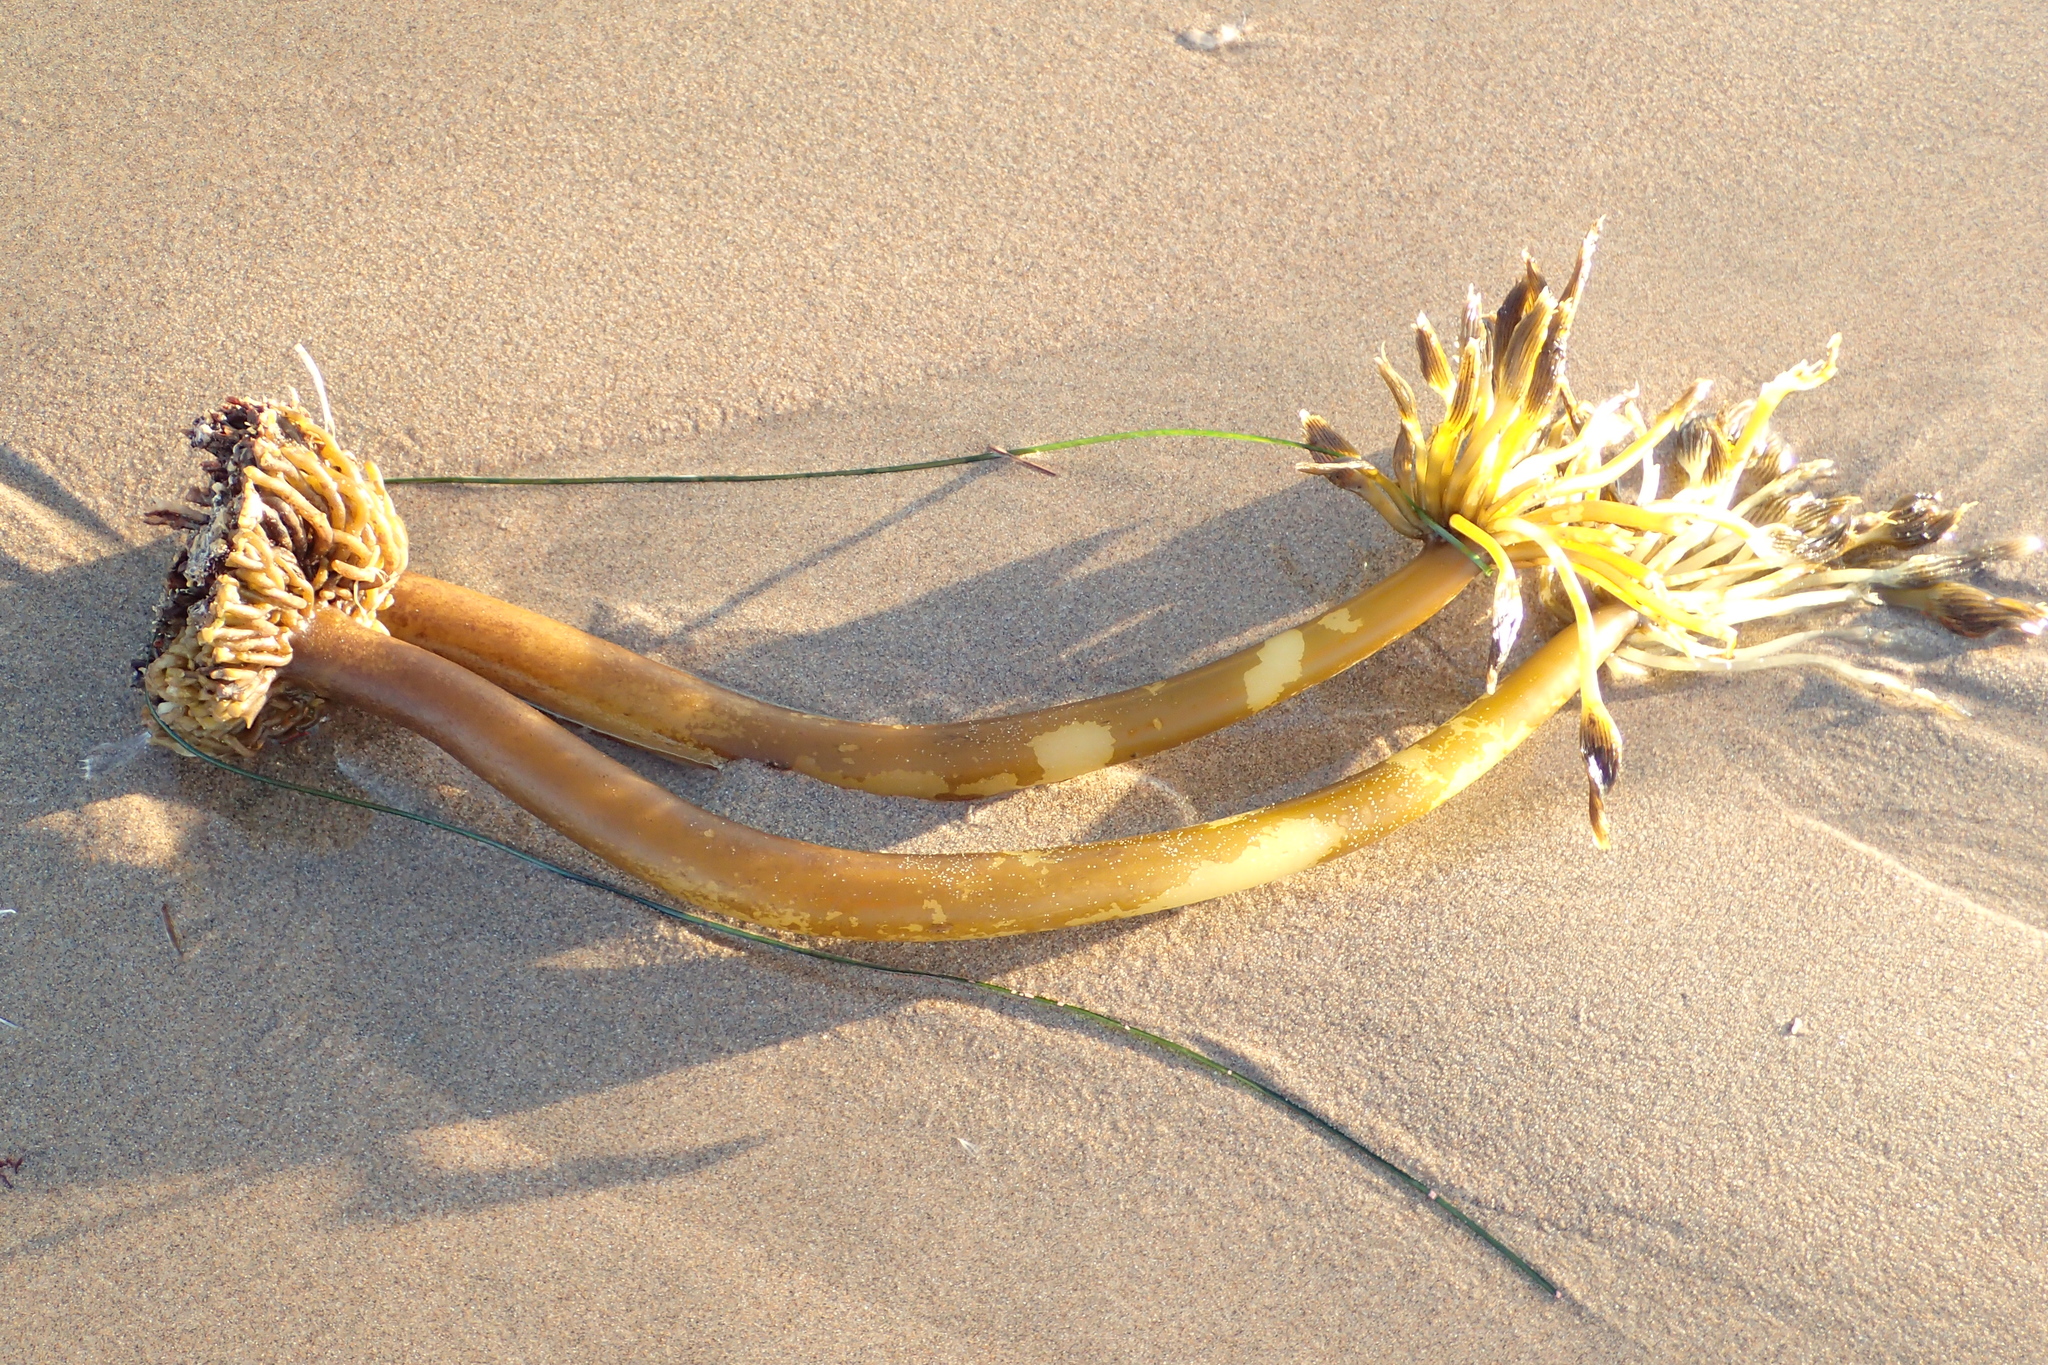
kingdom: Chromista
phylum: Ochrophyta
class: Phaeophyceae
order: Laminariales
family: Laminariaceae
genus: Postelsia
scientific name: Postelsia palmiformis
